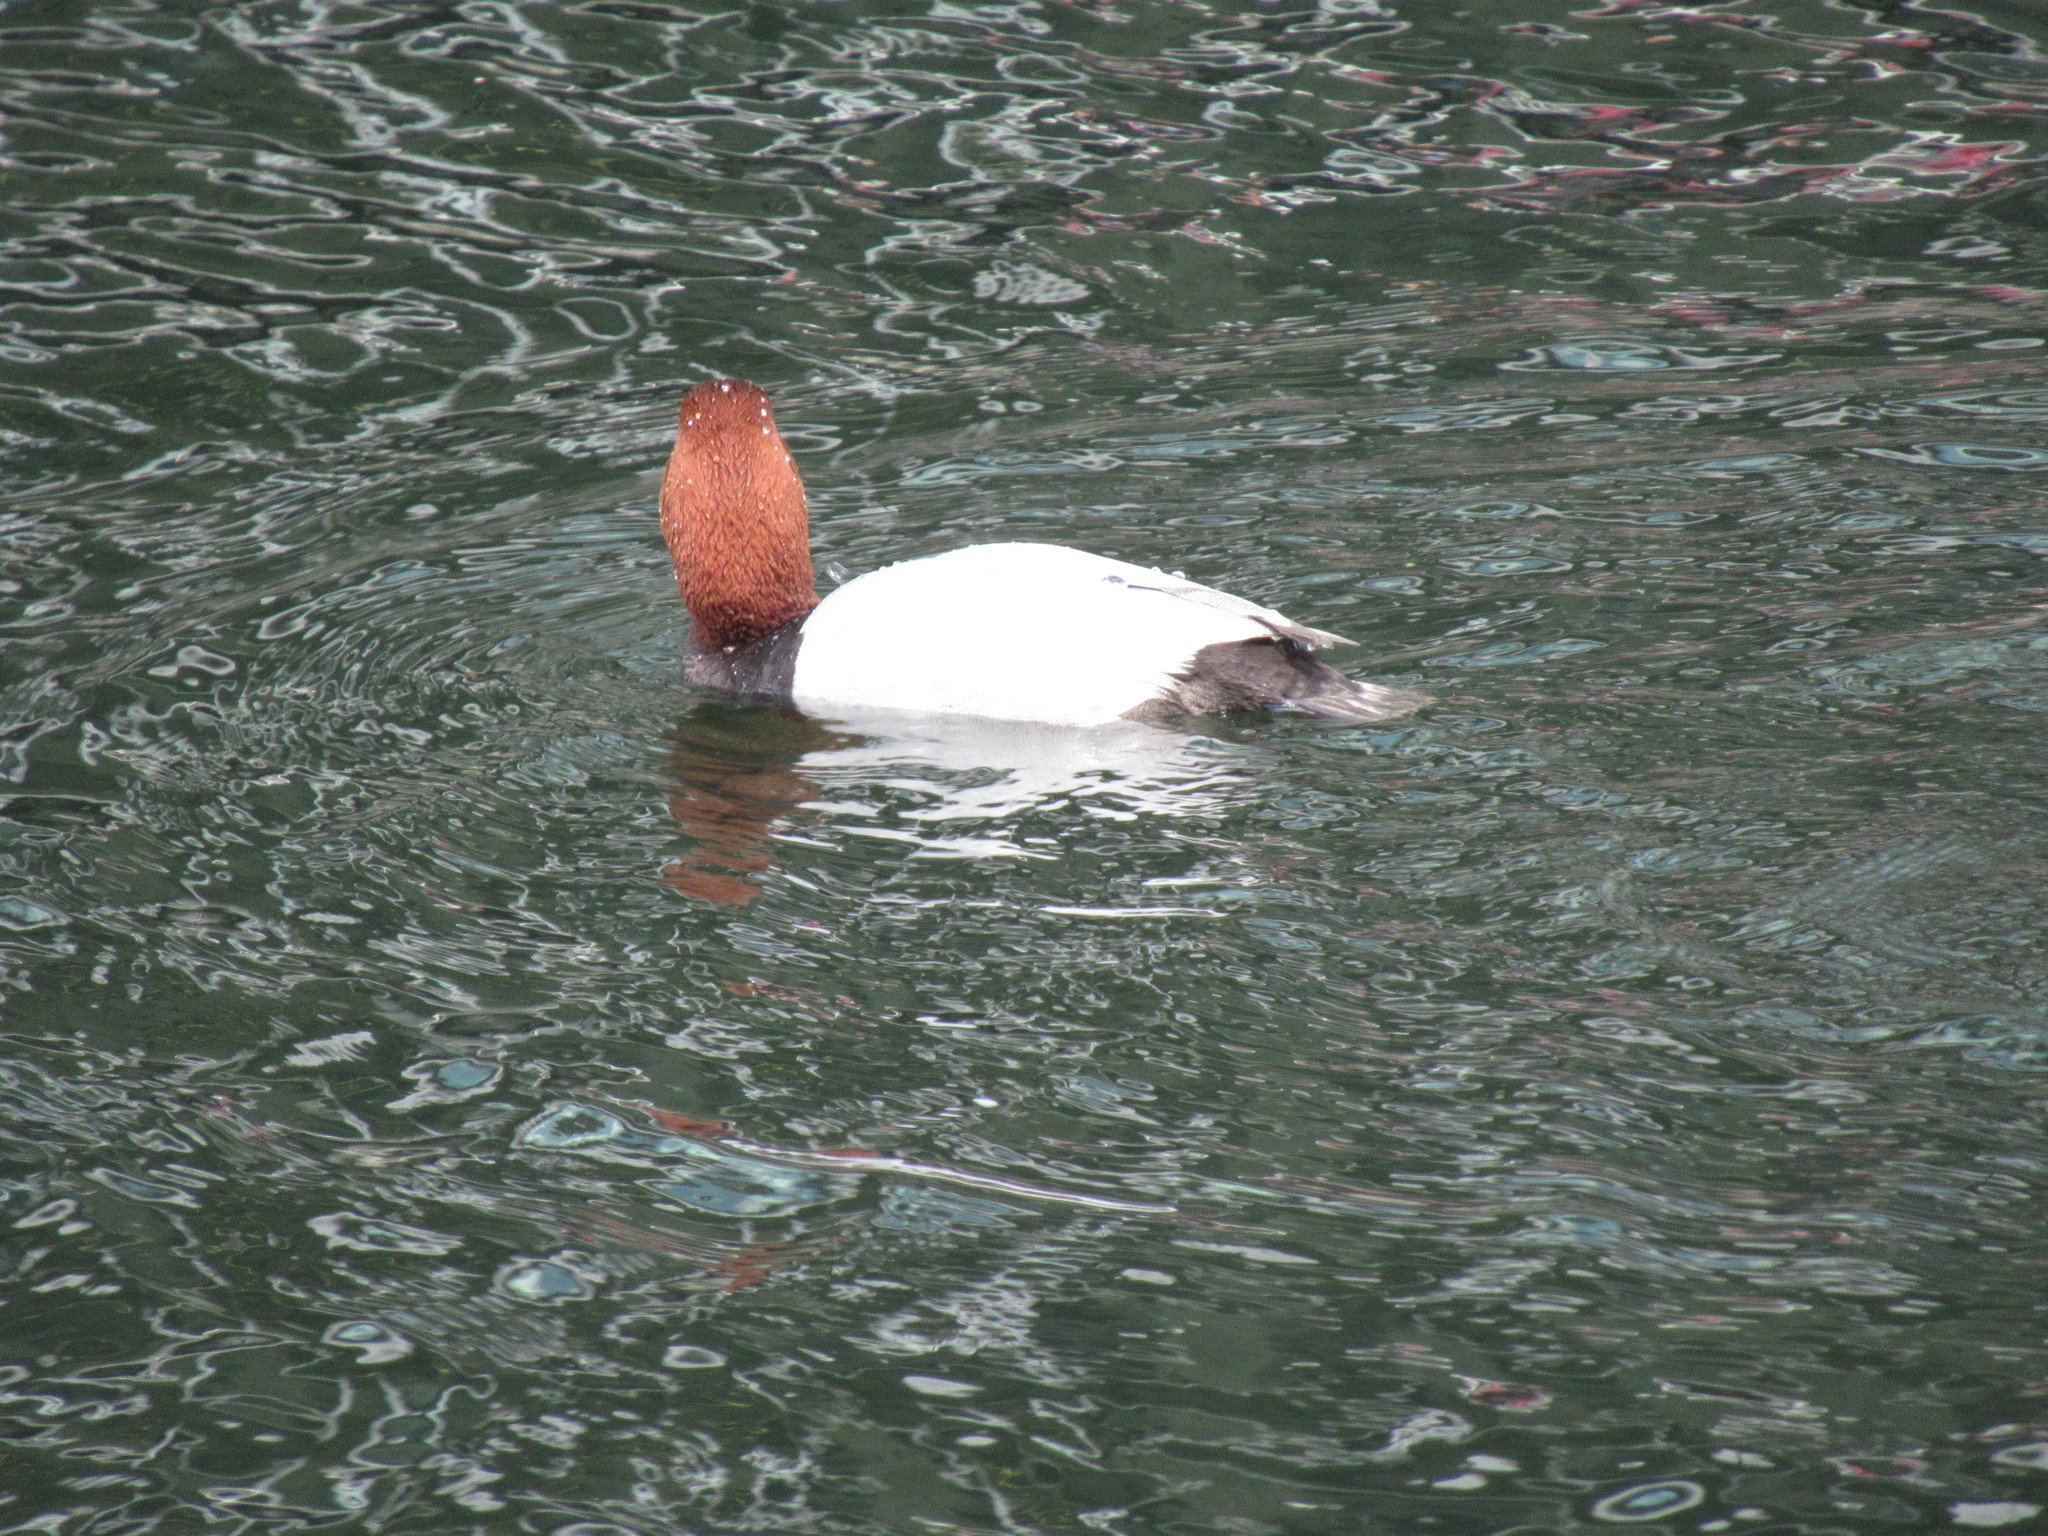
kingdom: Animalia
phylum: Chordata
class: Aves
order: Anseriformes
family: Anatidae
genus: Aythya
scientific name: Aythya ferina
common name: Common pochard
